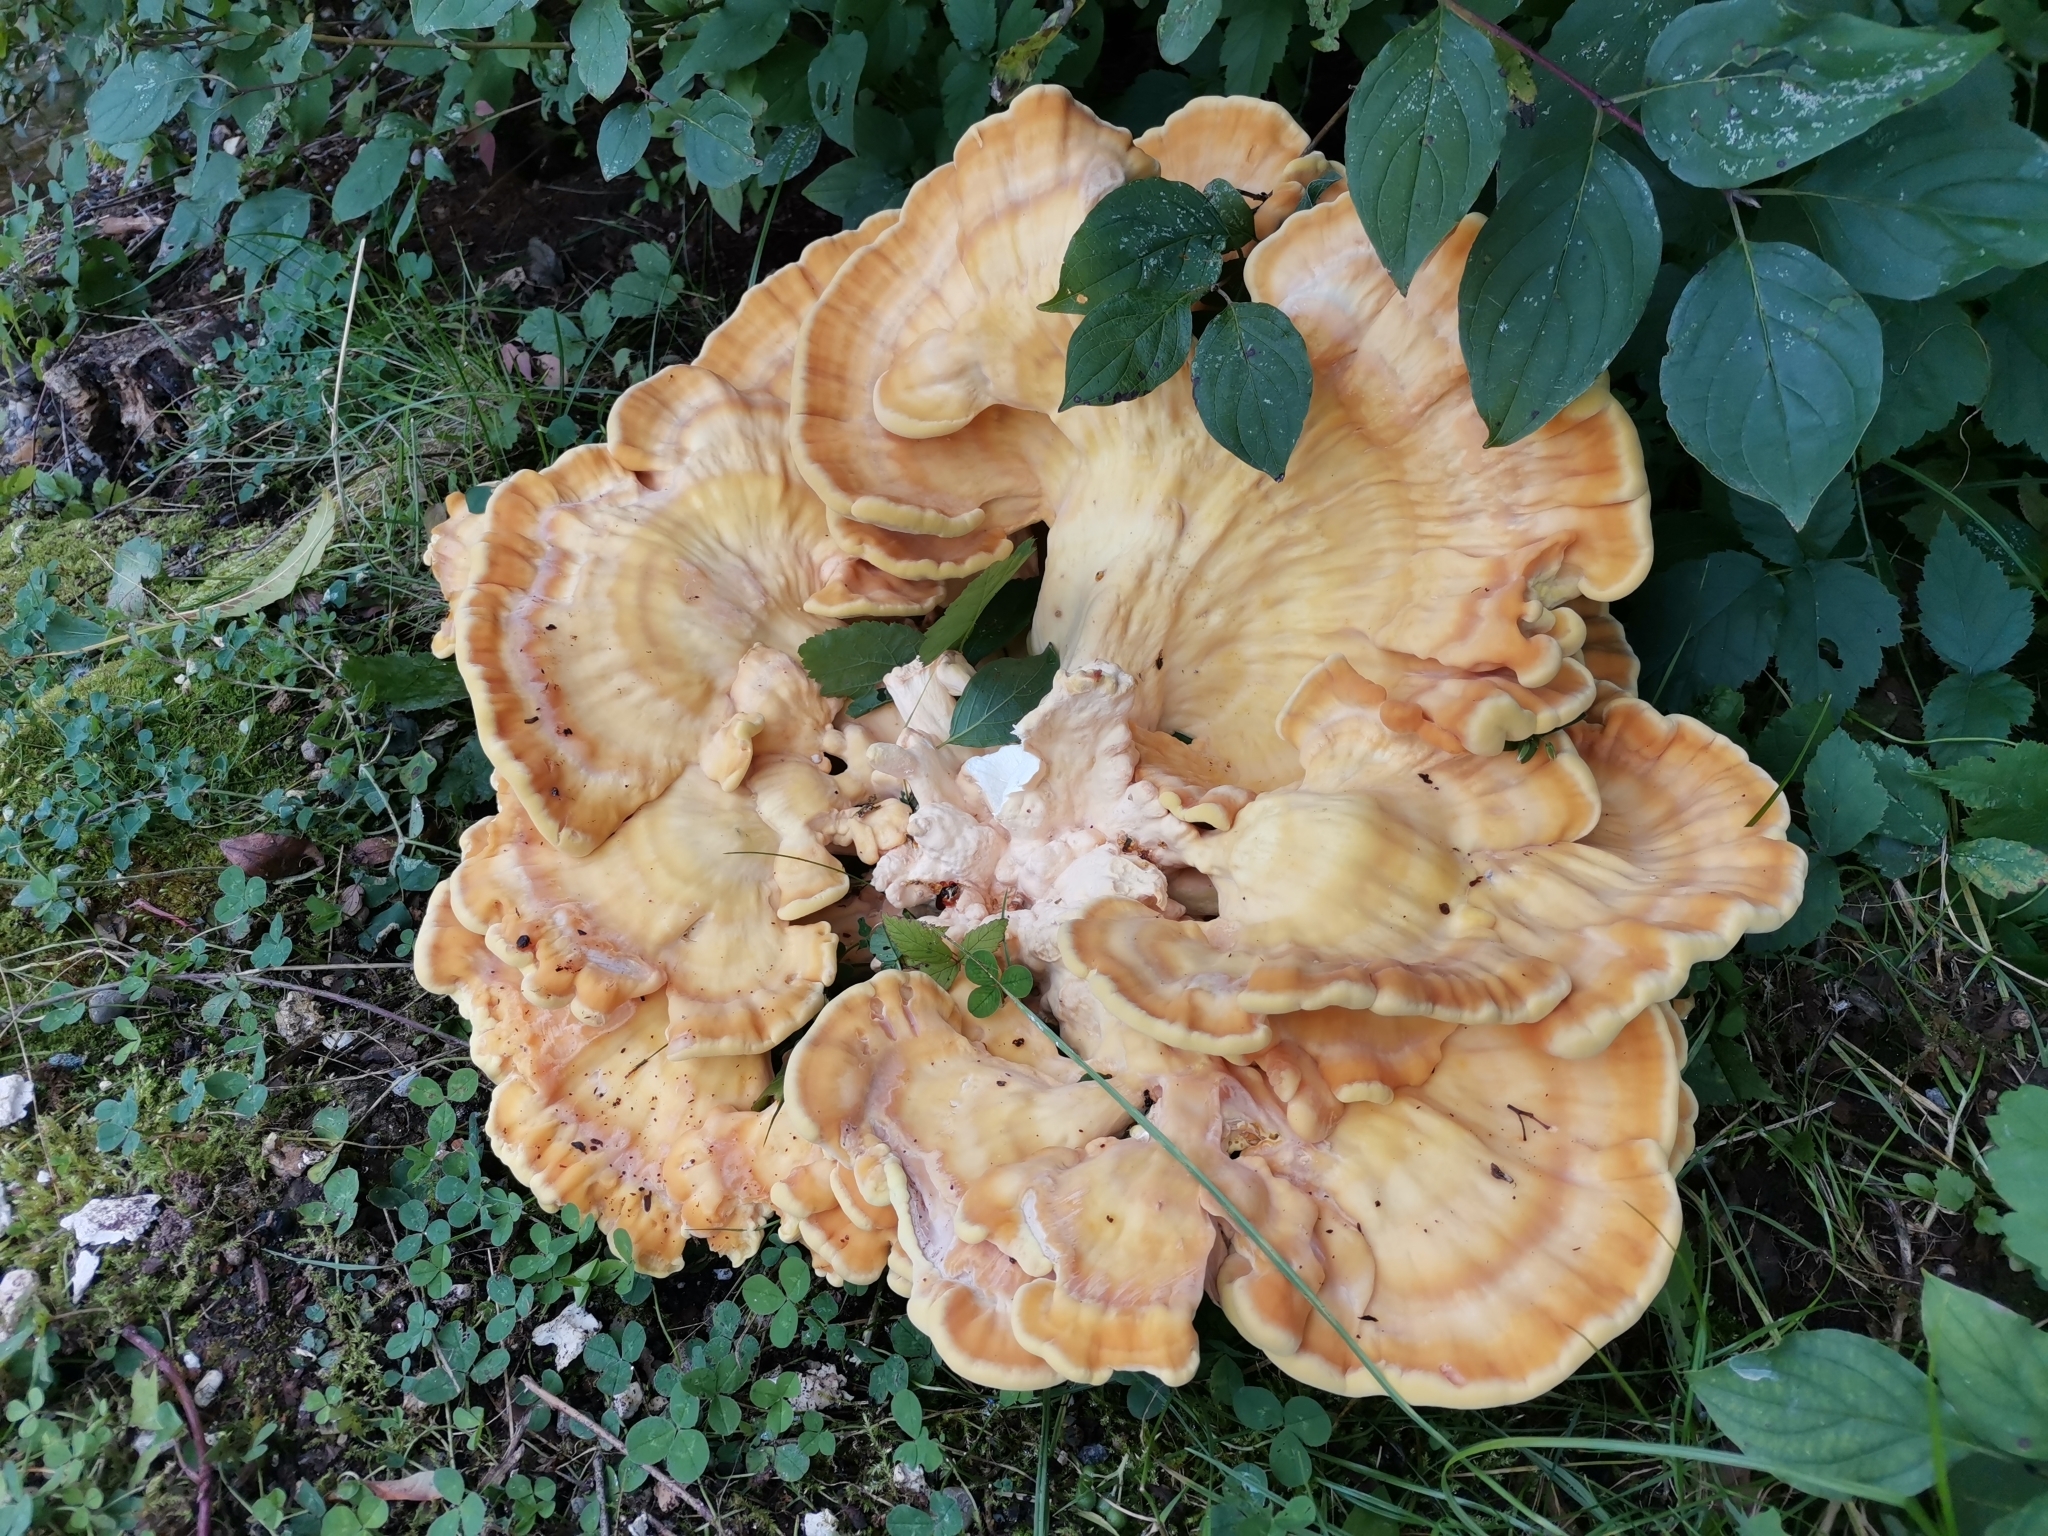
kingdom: Fungi
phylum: Basidiomycota
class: Agaricomycetes
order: Polyporales
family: Laetiporaceae
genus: Laetiporus
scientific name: Laetiporus sulphureus
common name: Chicken of the woods
